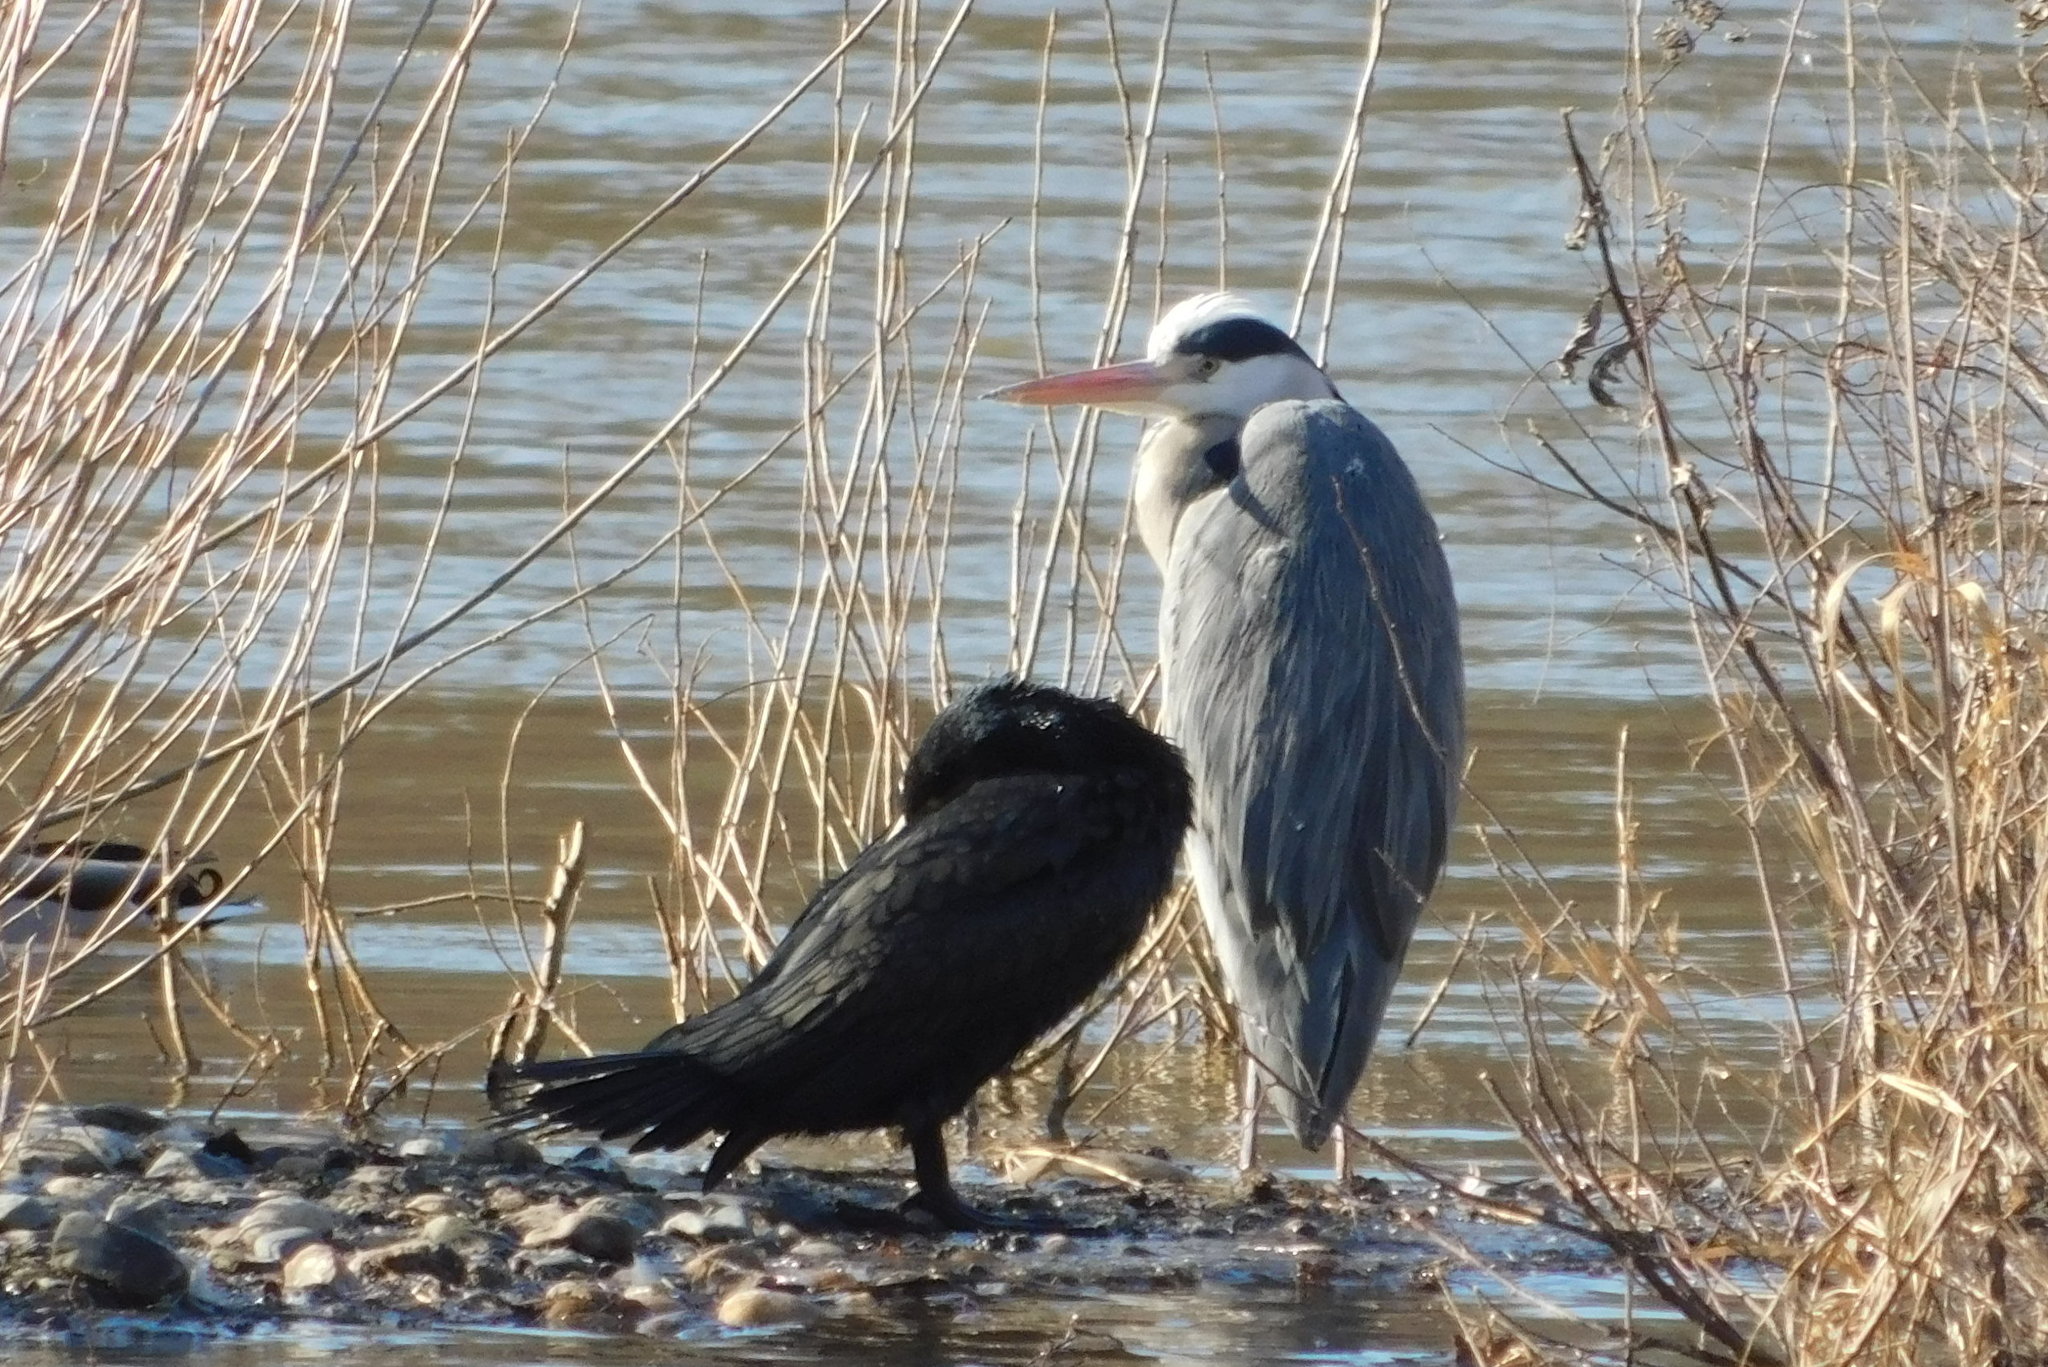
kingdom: Animalia
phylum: Chordata
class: Aves
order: Pelecaniformes
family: Ardeidae
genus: Ardea
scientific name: Ardea cinerea
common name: Grey heron
